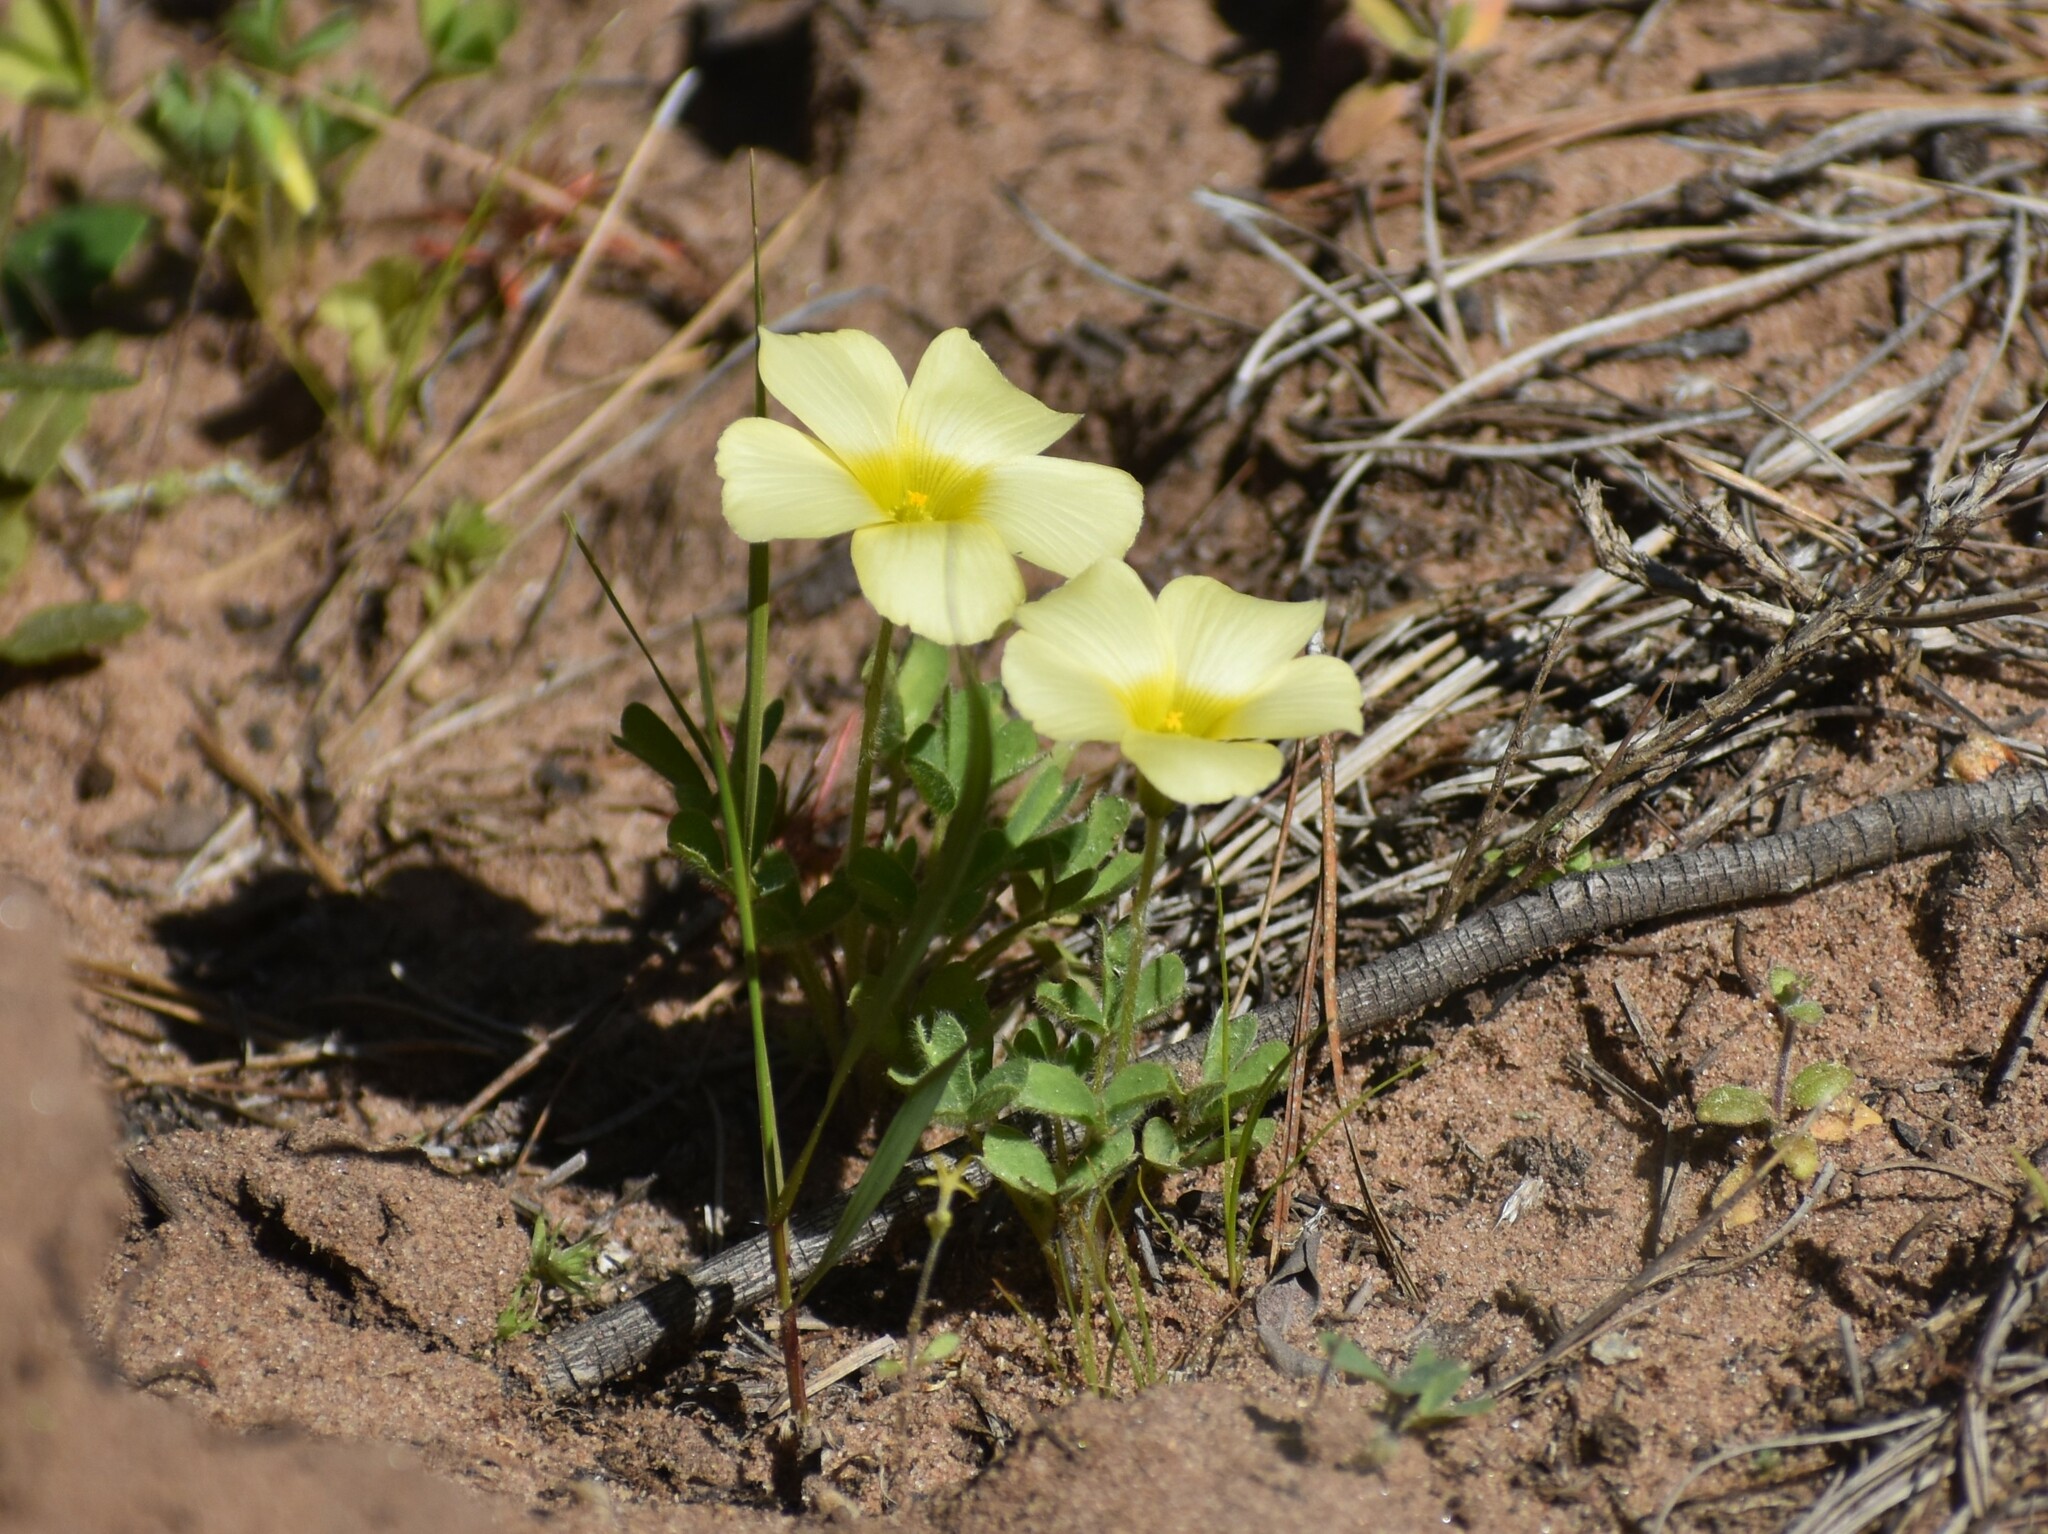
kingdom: Plantae
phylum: Tracheophyta
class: Magnoliopsida
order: Oxalidales
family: Oxalidaceae
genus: Oxalis
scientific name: Oxalis obtusa
